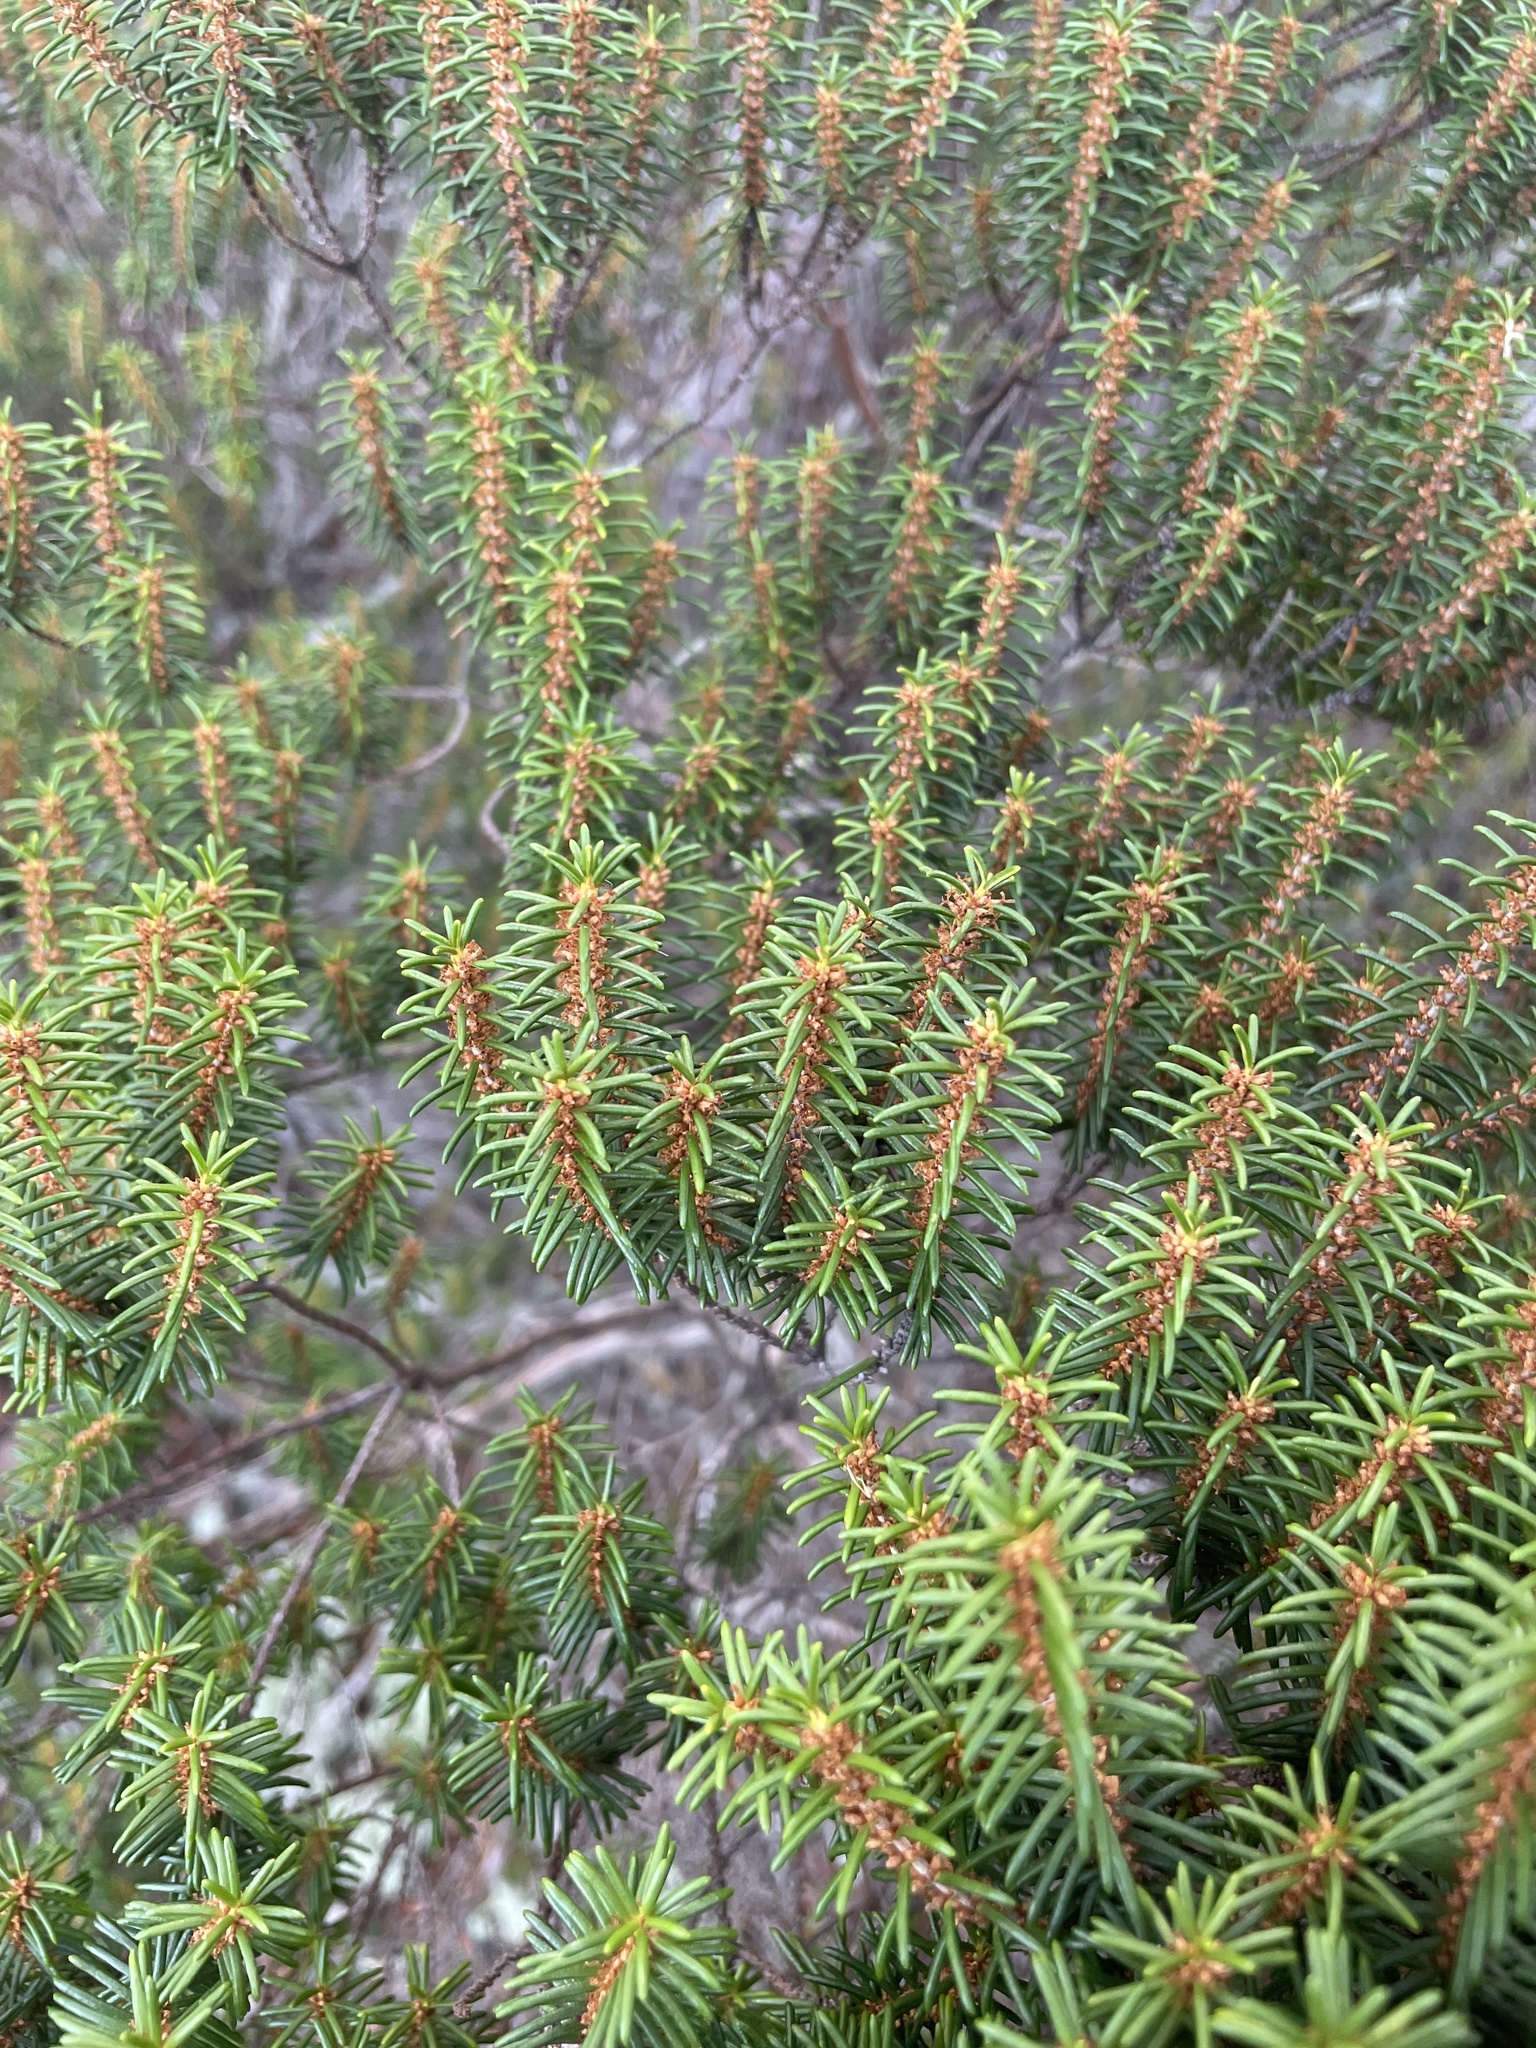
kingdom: Plantae
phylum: Tracheophyta
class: Magnoliopsida
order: Ericales
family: Ericaceae
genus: Ceratiola
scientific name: Ceratiola ericoides
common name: Sandhill-rosemary
